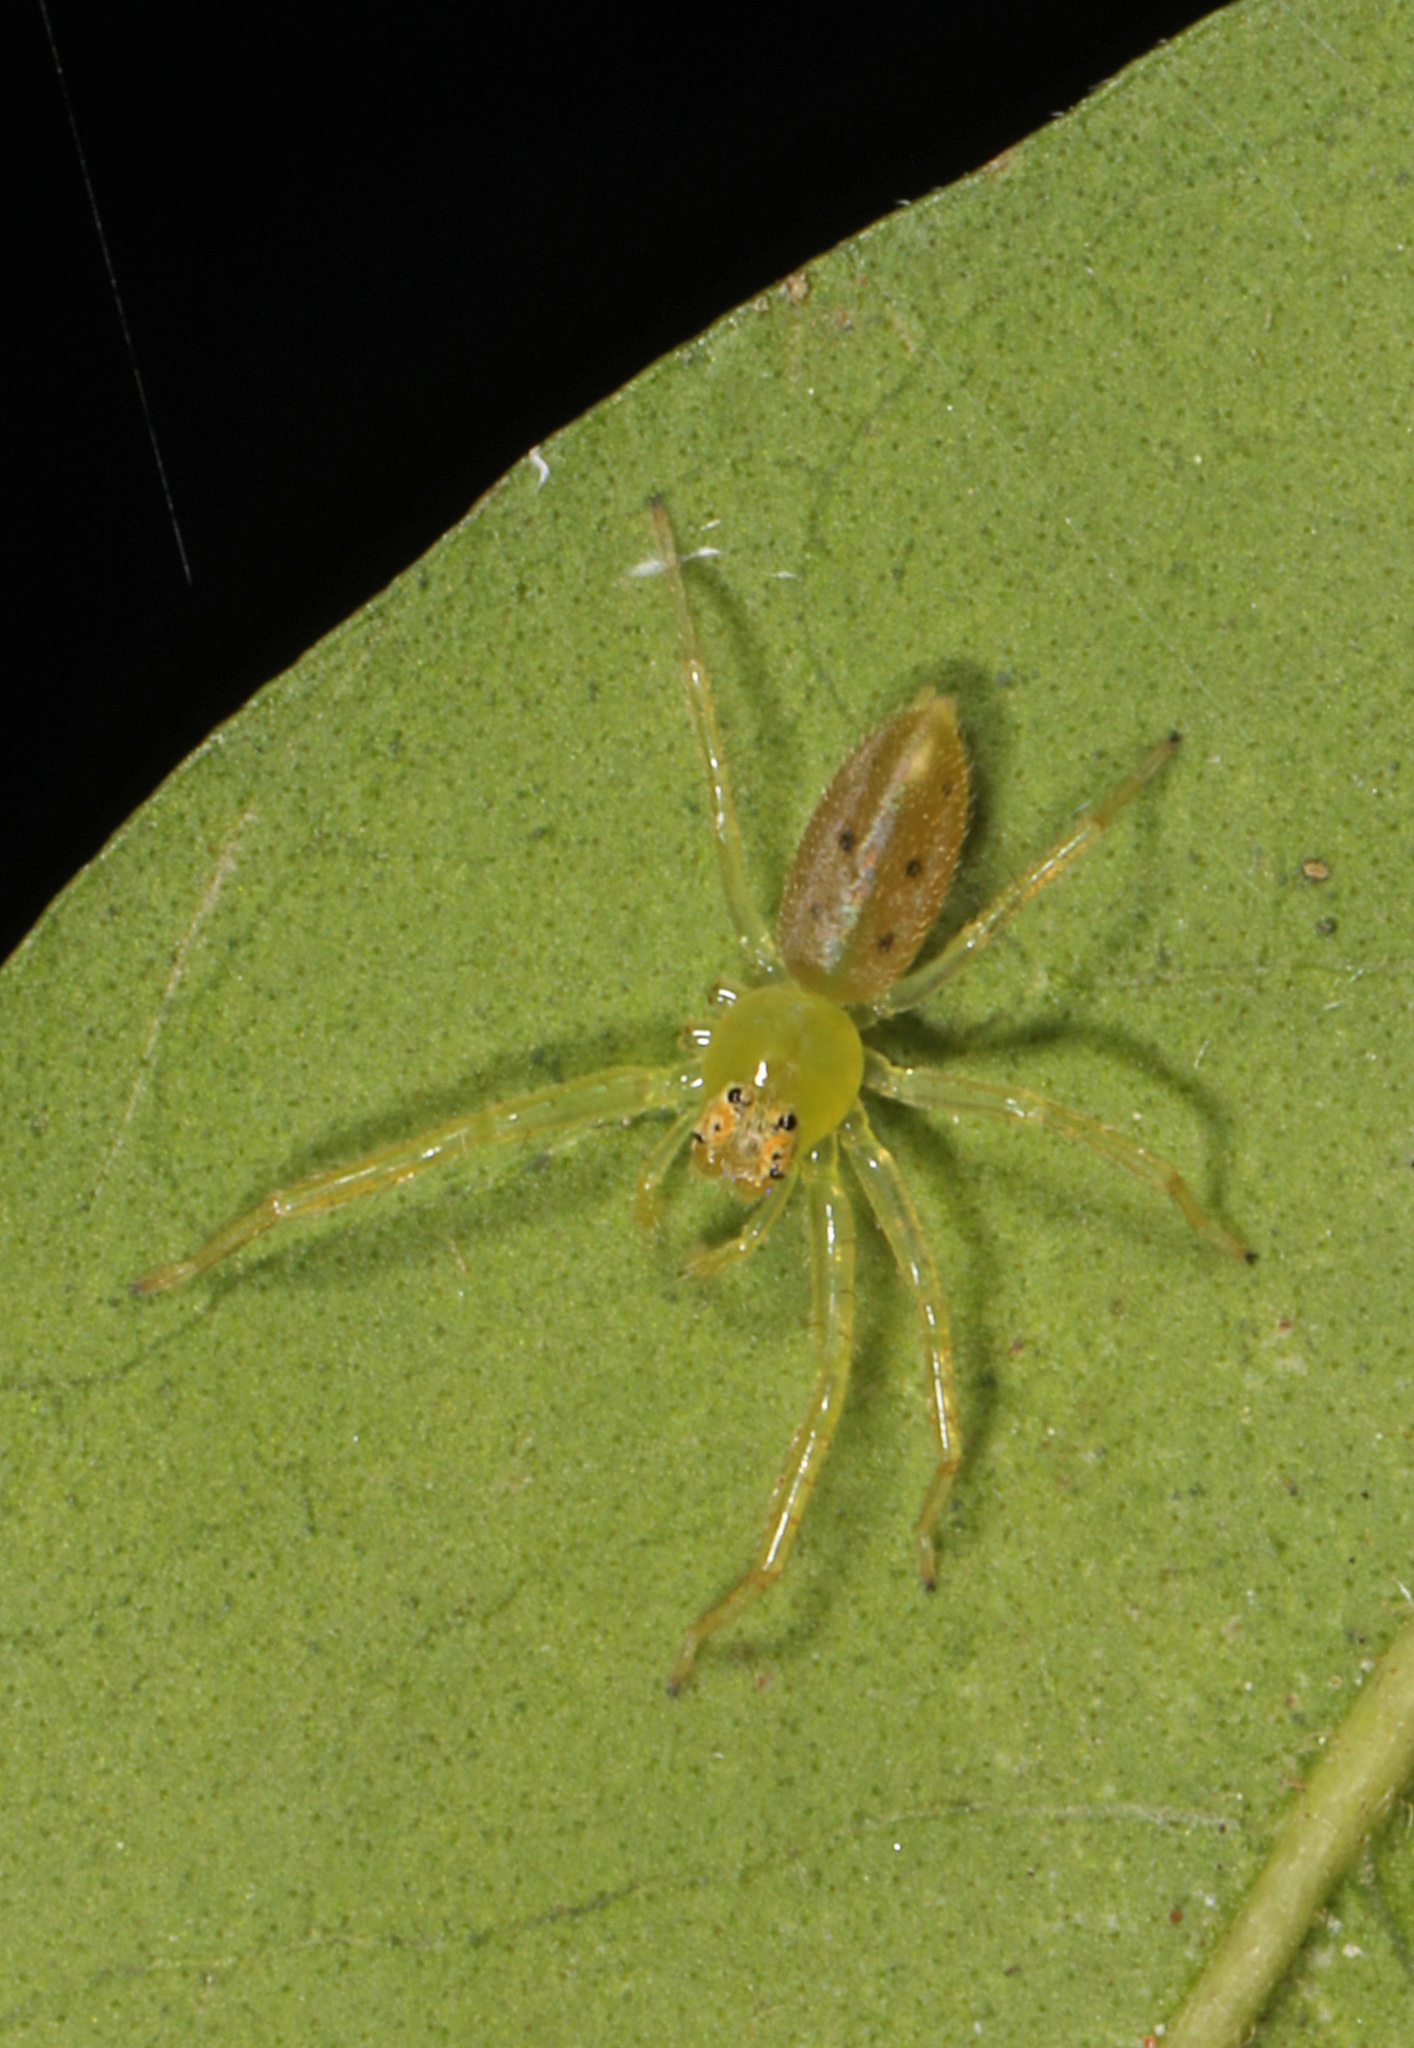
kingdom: Animalia
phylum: Arthropoda
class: Arachnida
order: Araneae
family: Salticidae
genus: Lyssomanes
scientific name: Lyssomanes viridis
